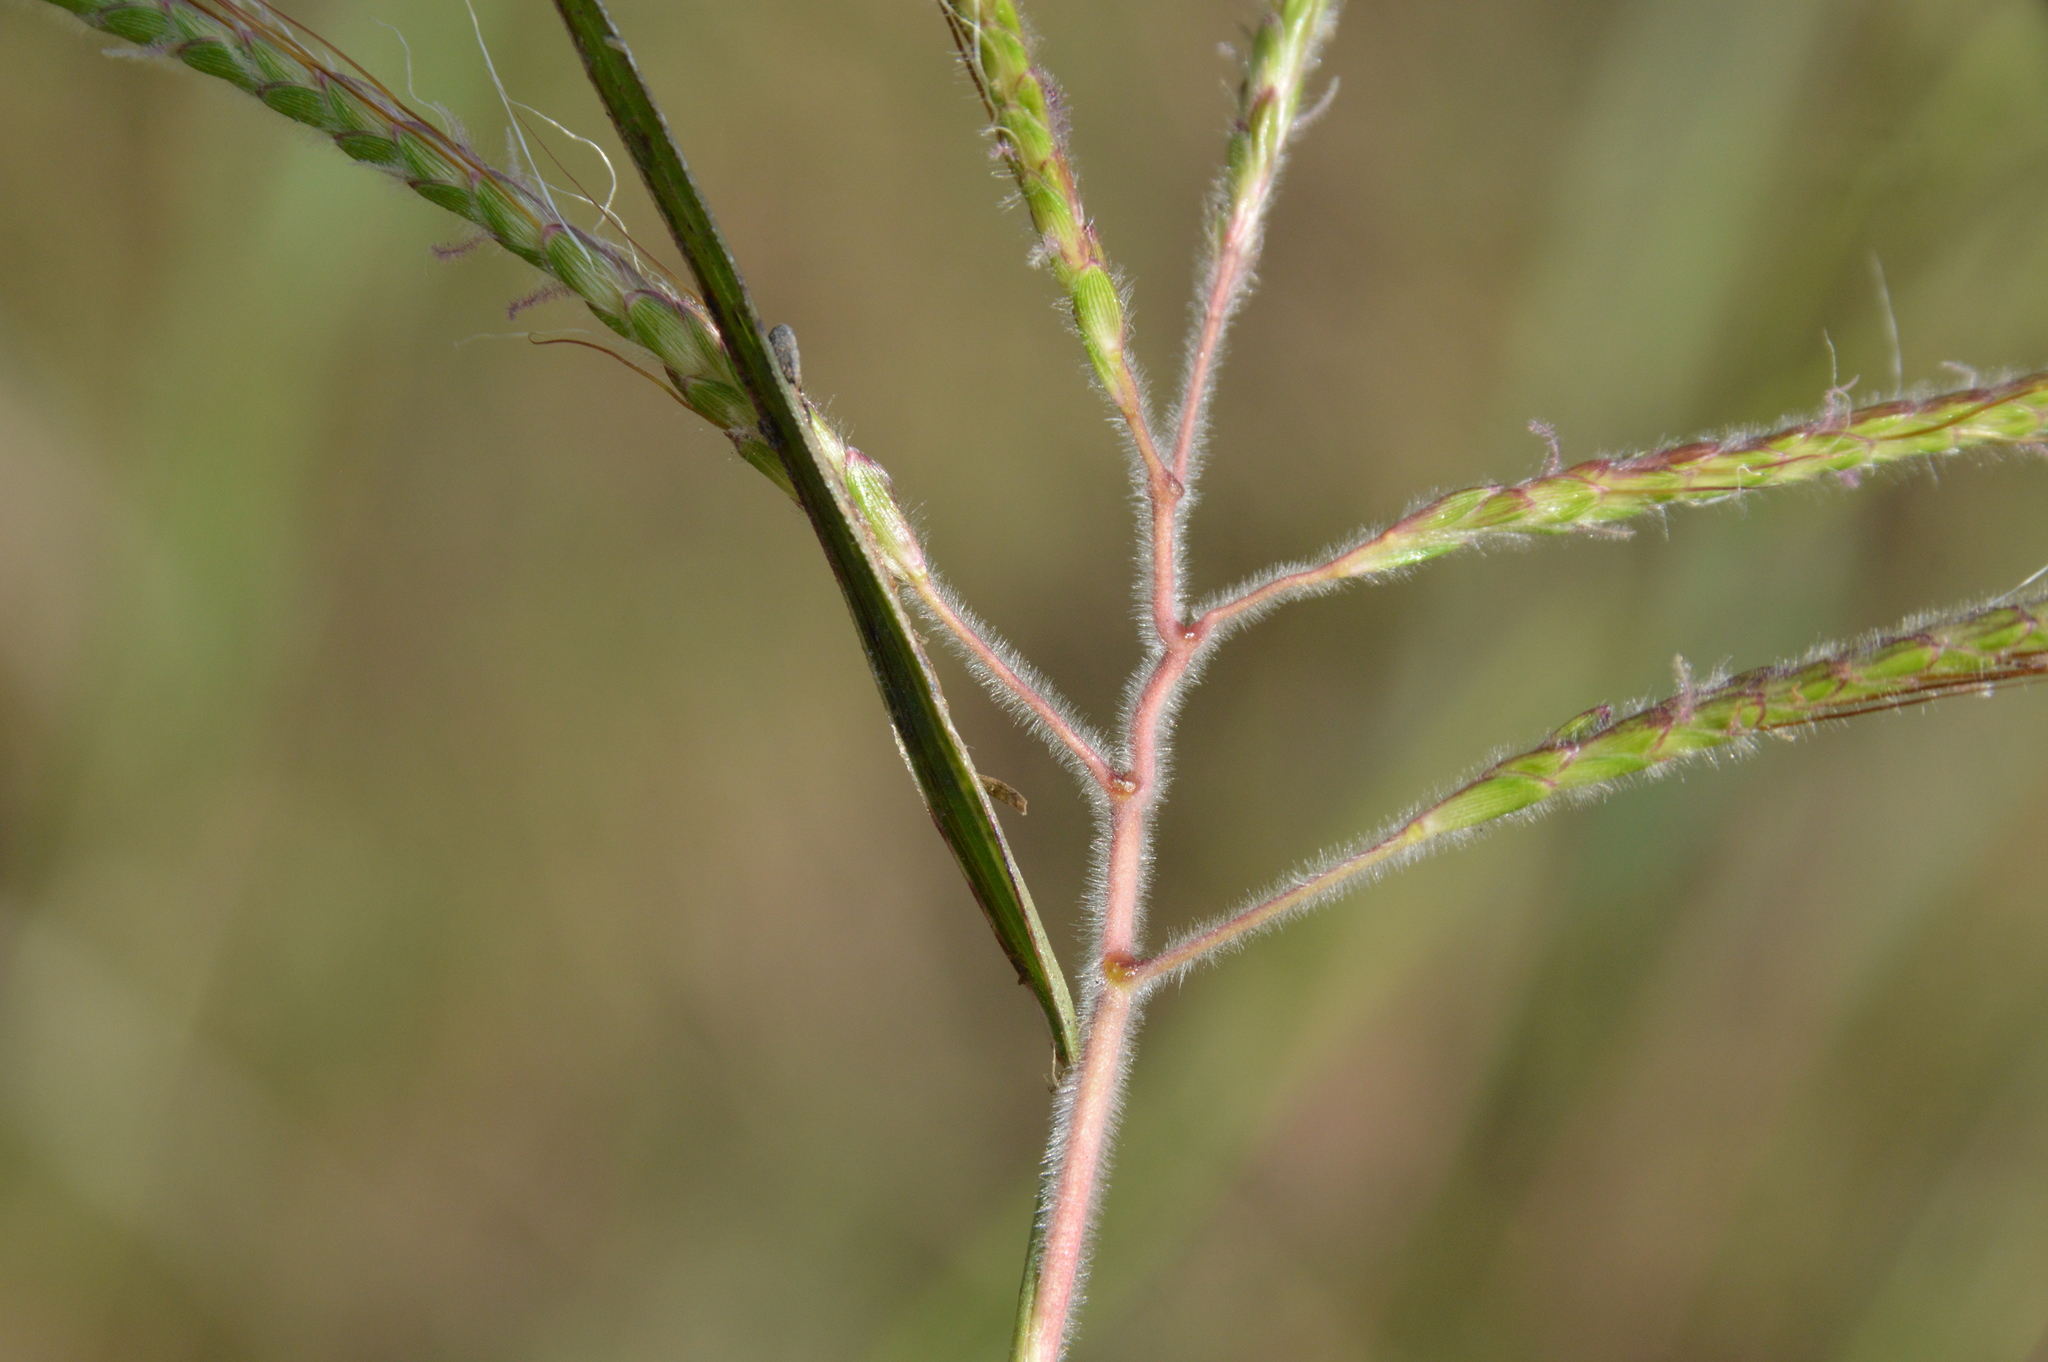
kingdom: Plantae
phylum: Tracheophyta
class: Liliopsida
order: Poales
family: Poaceae
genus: Dichanthium
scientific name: Dichanthium aristatum
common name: Angleton bluestem
